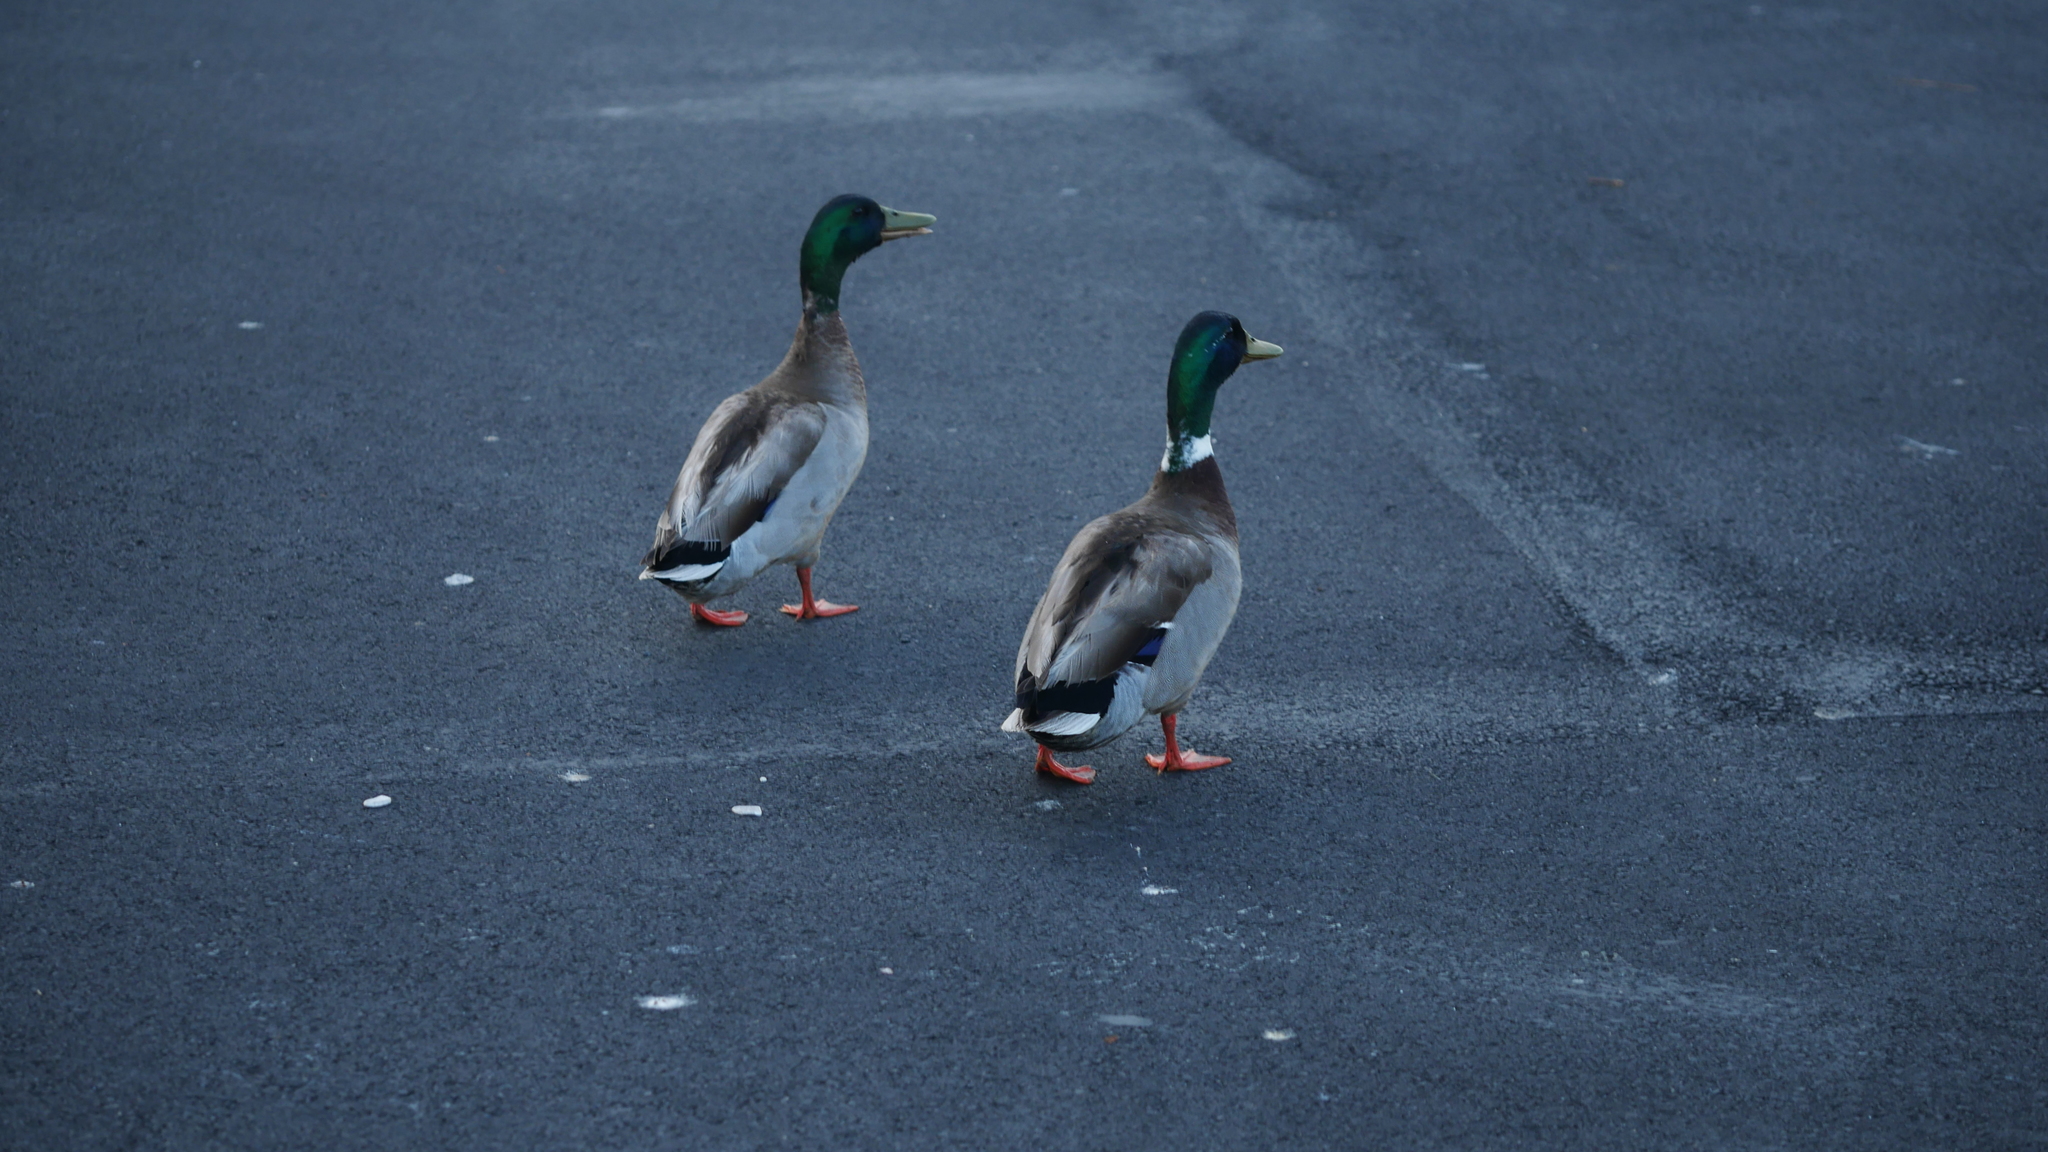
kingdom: Animalia
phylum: Chordata
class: Aves
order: Anseriformes
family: Anatidae
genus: Anas
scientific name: Anas platyrhynchos
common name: Mallard
